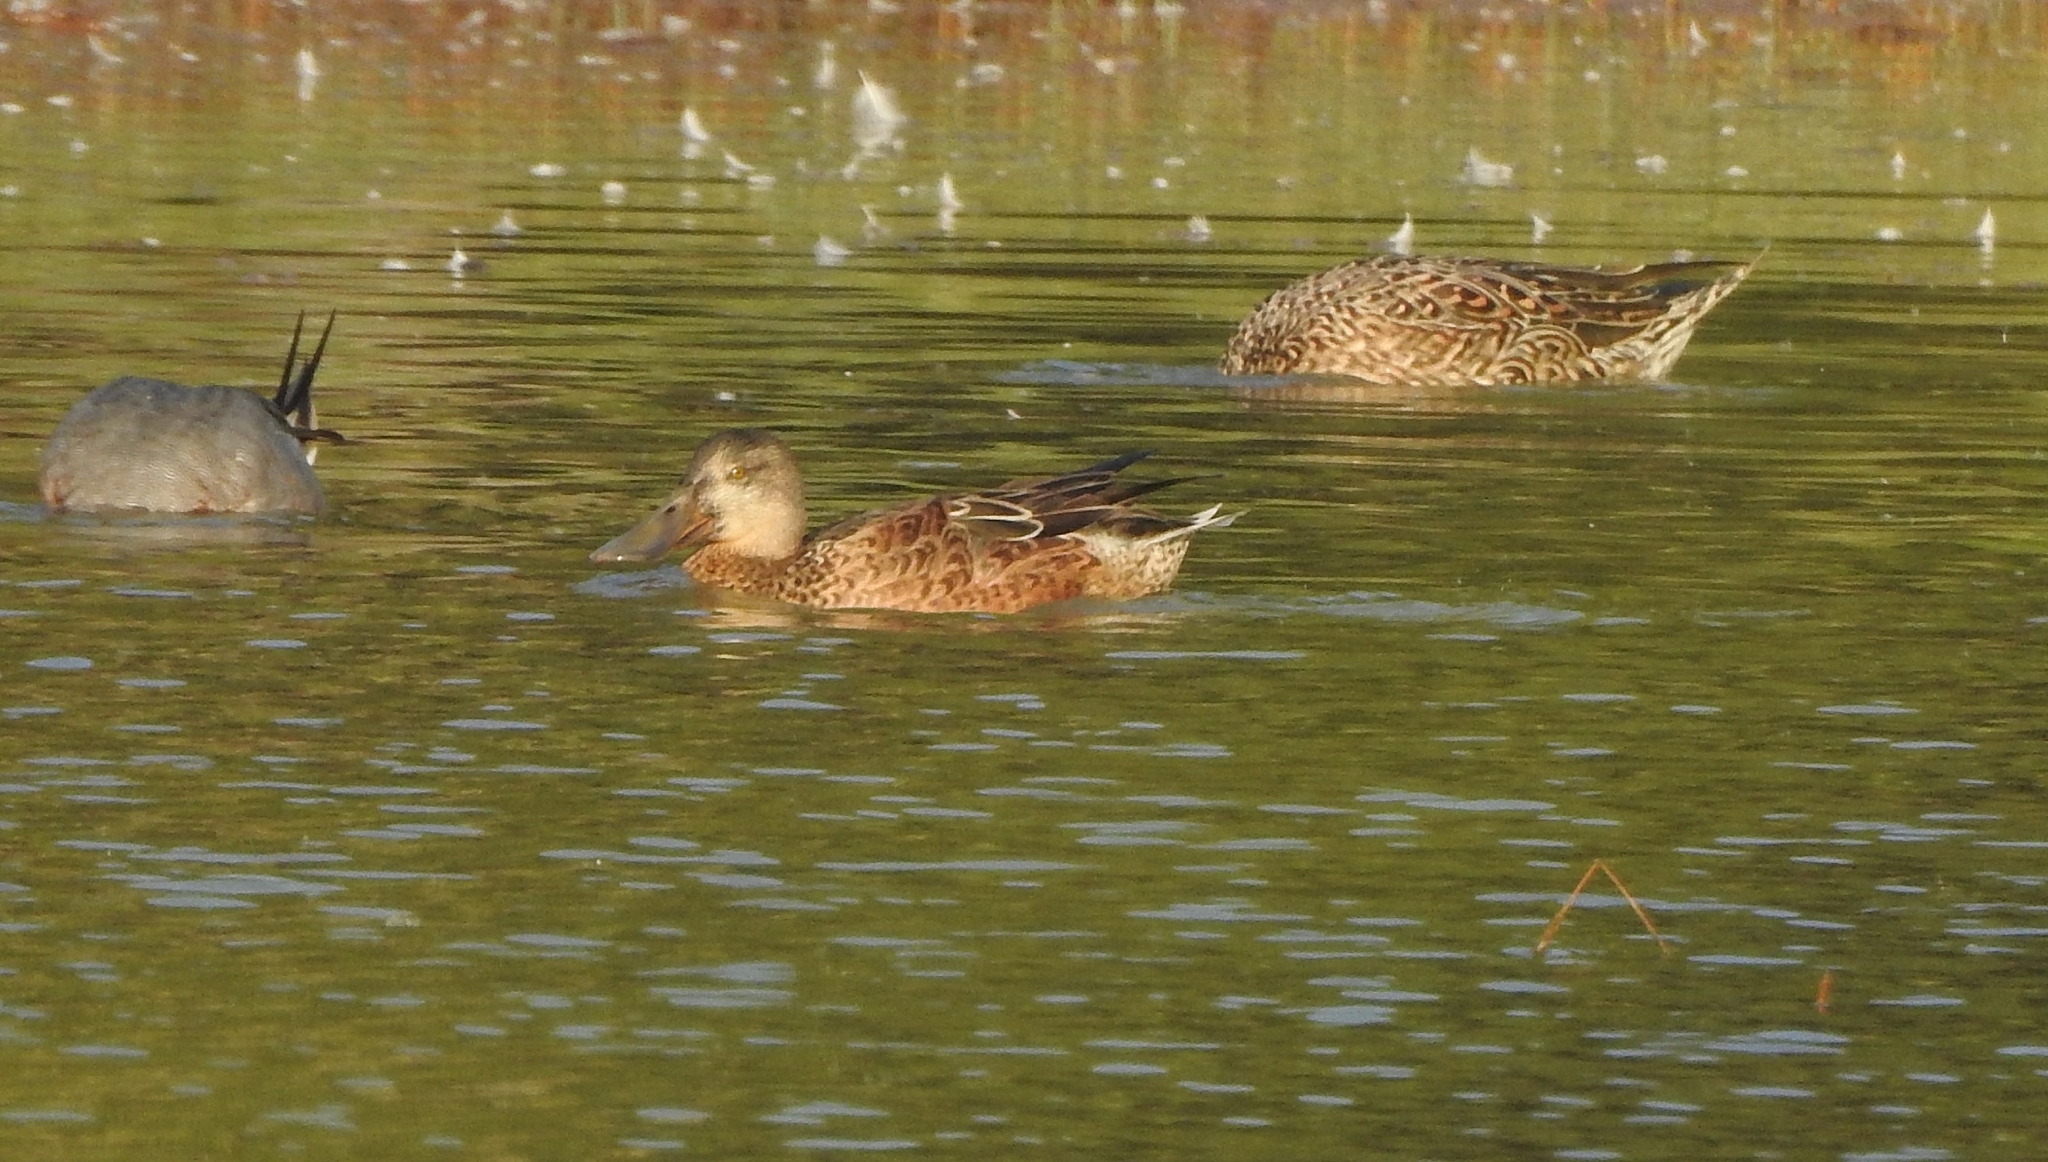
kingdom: Animalia
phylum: Chordata
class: Aves
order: Anseriformes
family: Anatidae
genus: Spatula
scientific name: Spatula clypeata
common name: Northern shoveler
